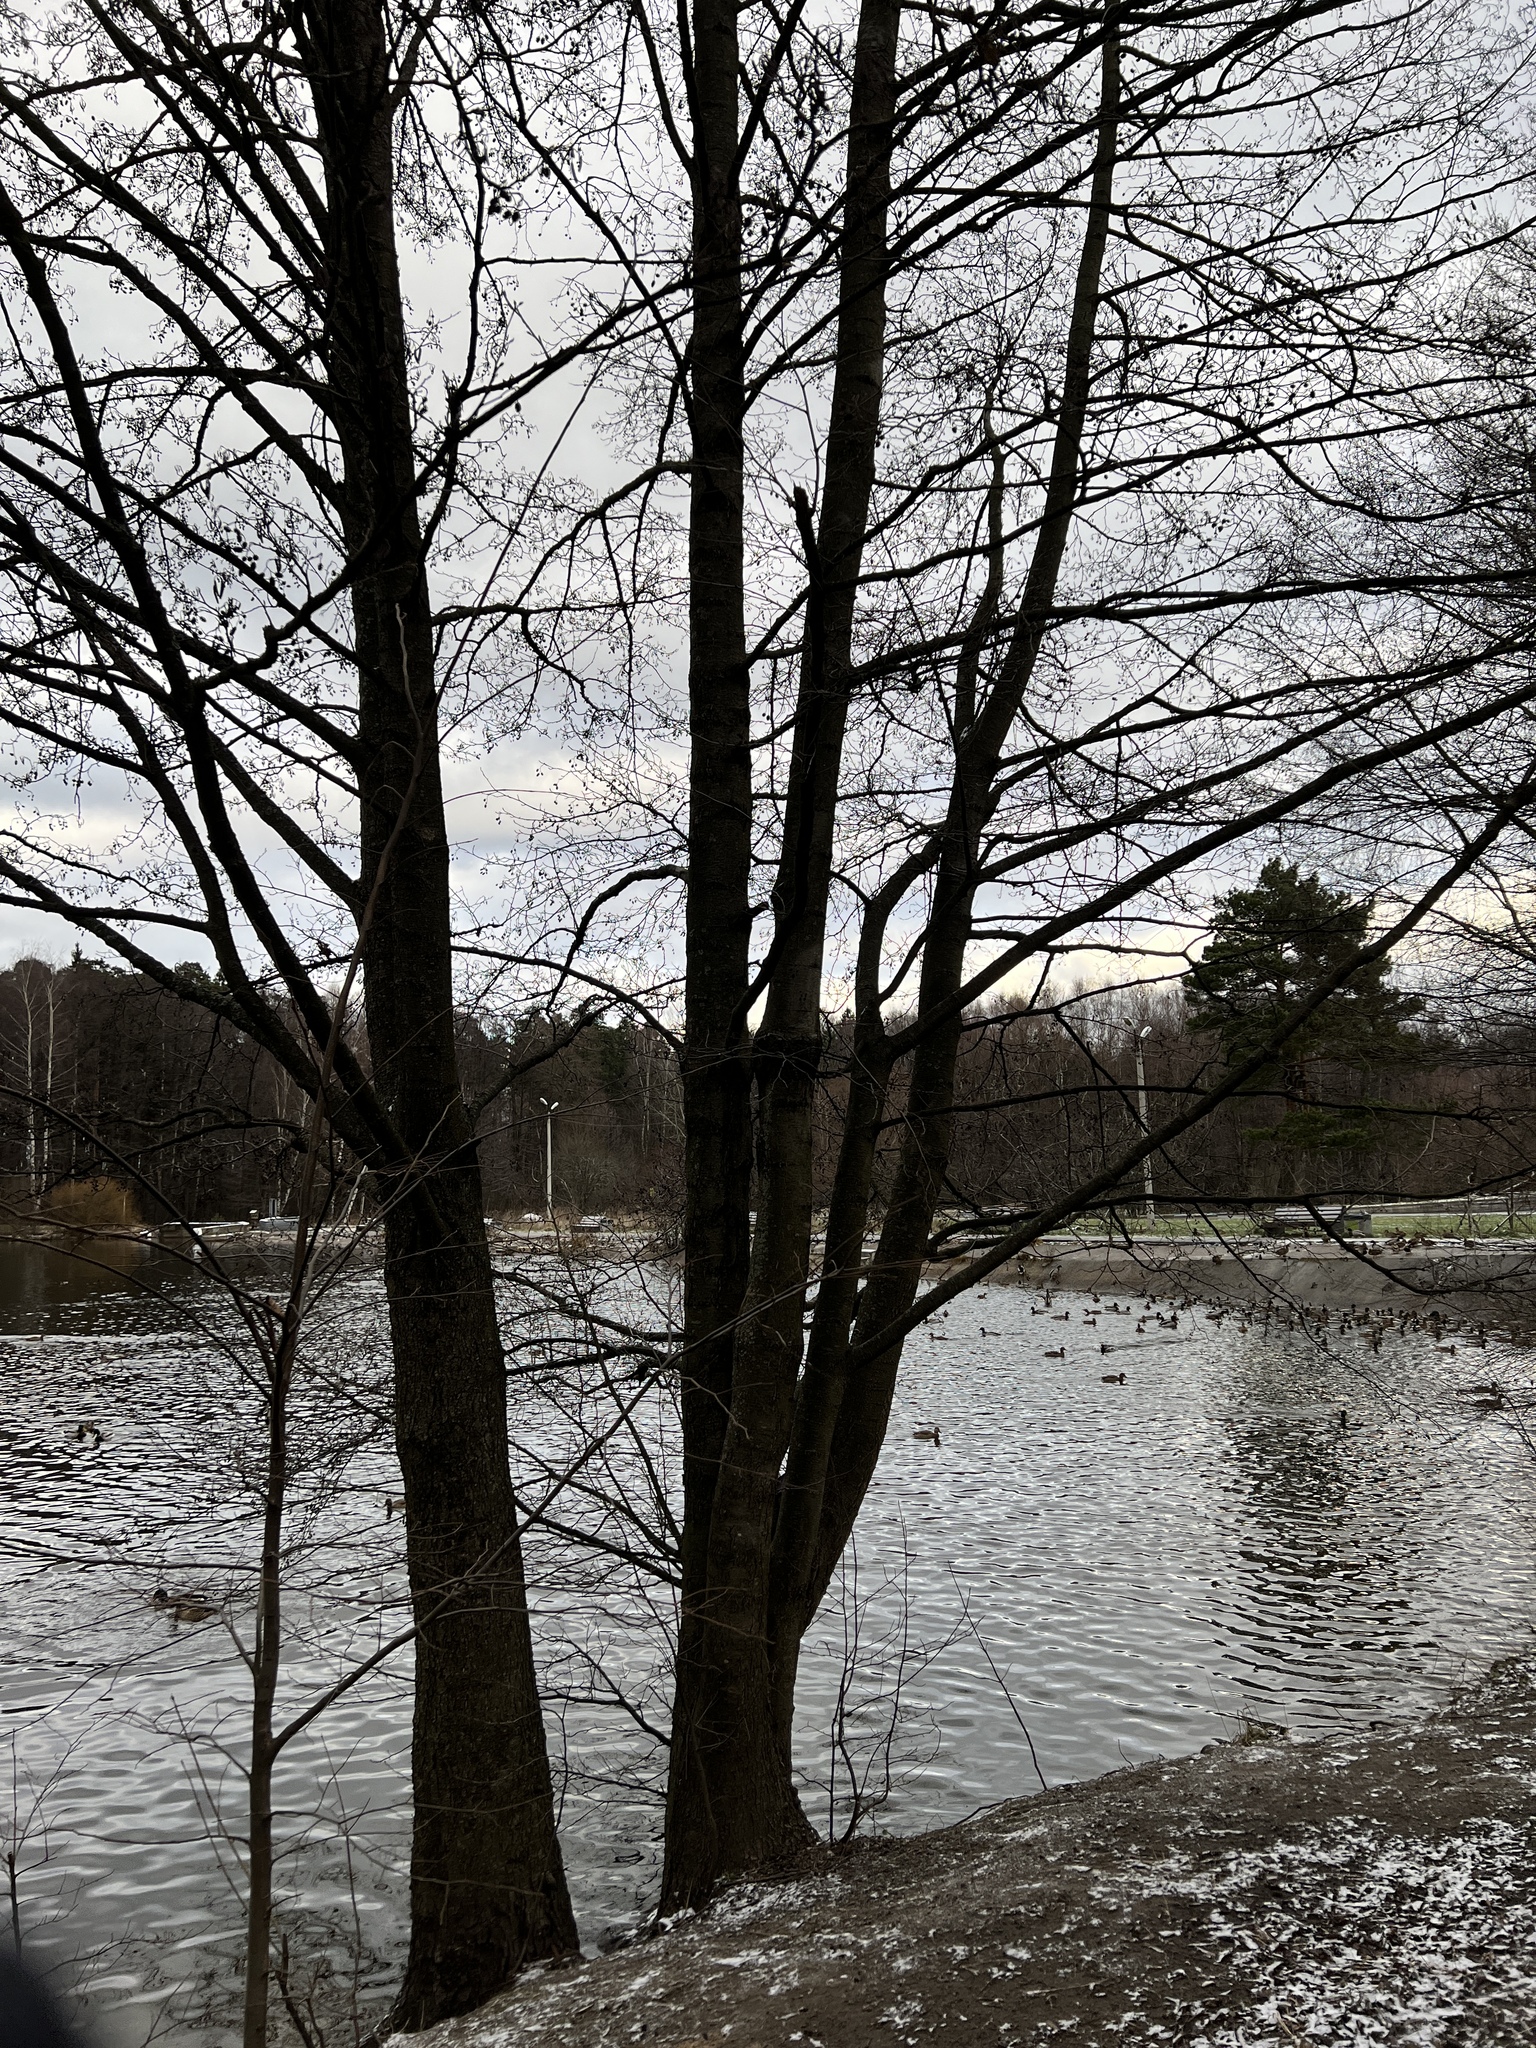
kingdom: Plantae
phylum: Tracheophyta
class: Magnoliopsida
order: Fagales
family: Betulaceae
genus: Alnus
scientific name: Alnus glutinosa
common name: Black alder
